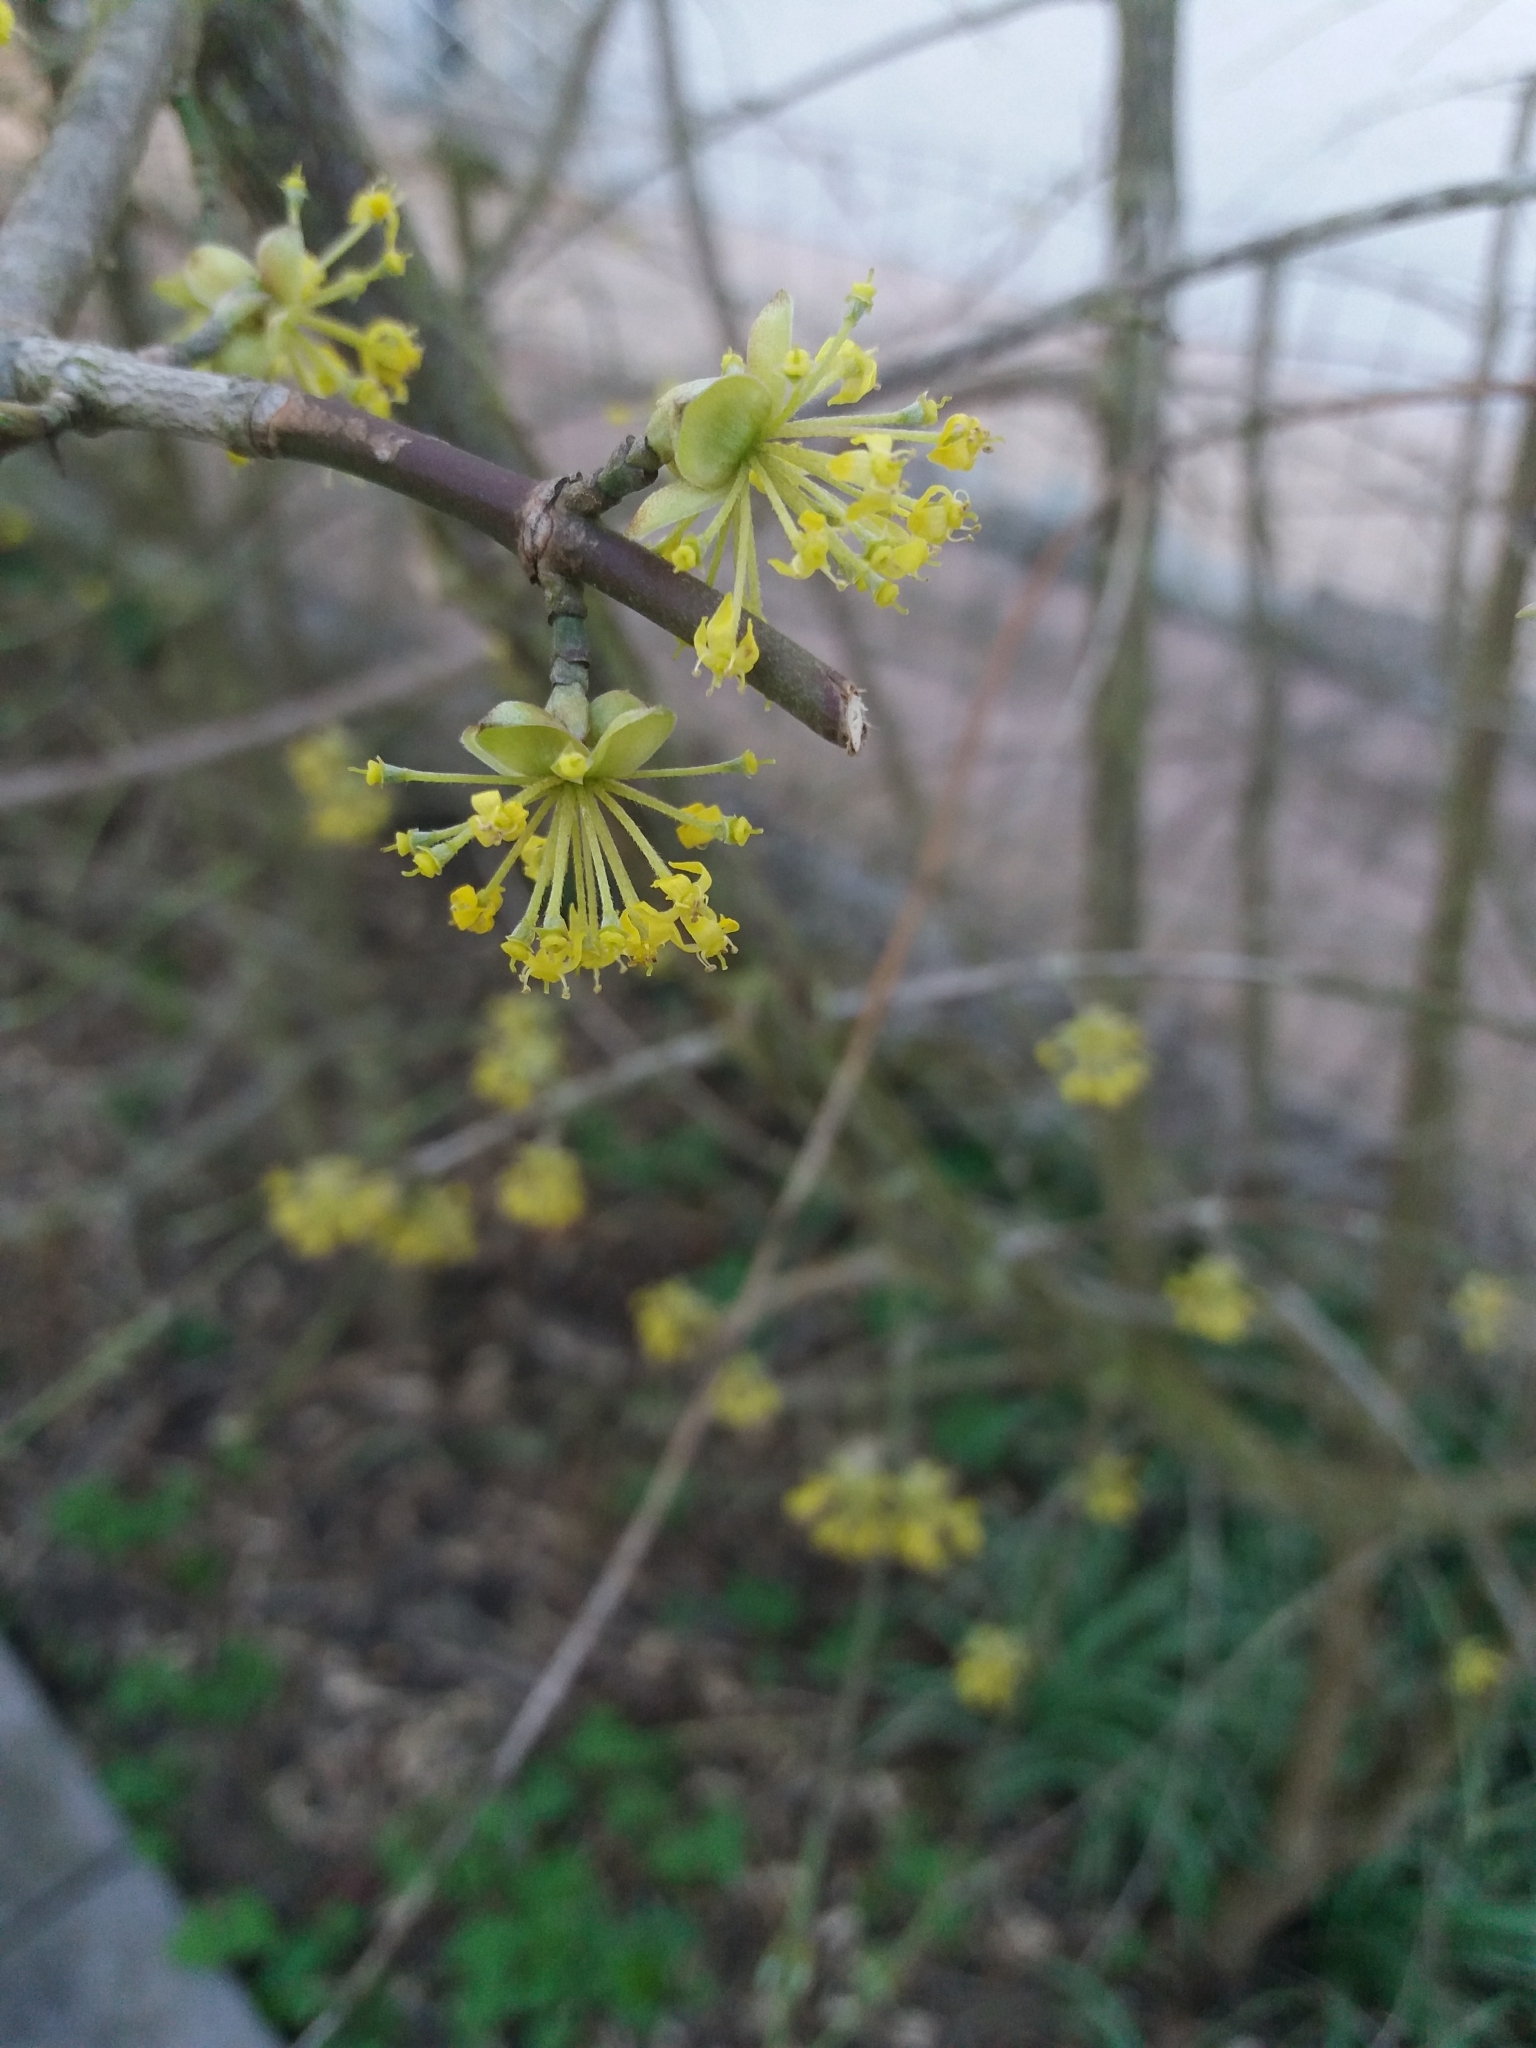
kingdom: Plantae
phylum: Tracheophyta
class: Magnoliopsida
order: Cornales
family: Cornaceae
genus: Cornus
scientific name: Cornus mas
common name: Cornelian-cherry
